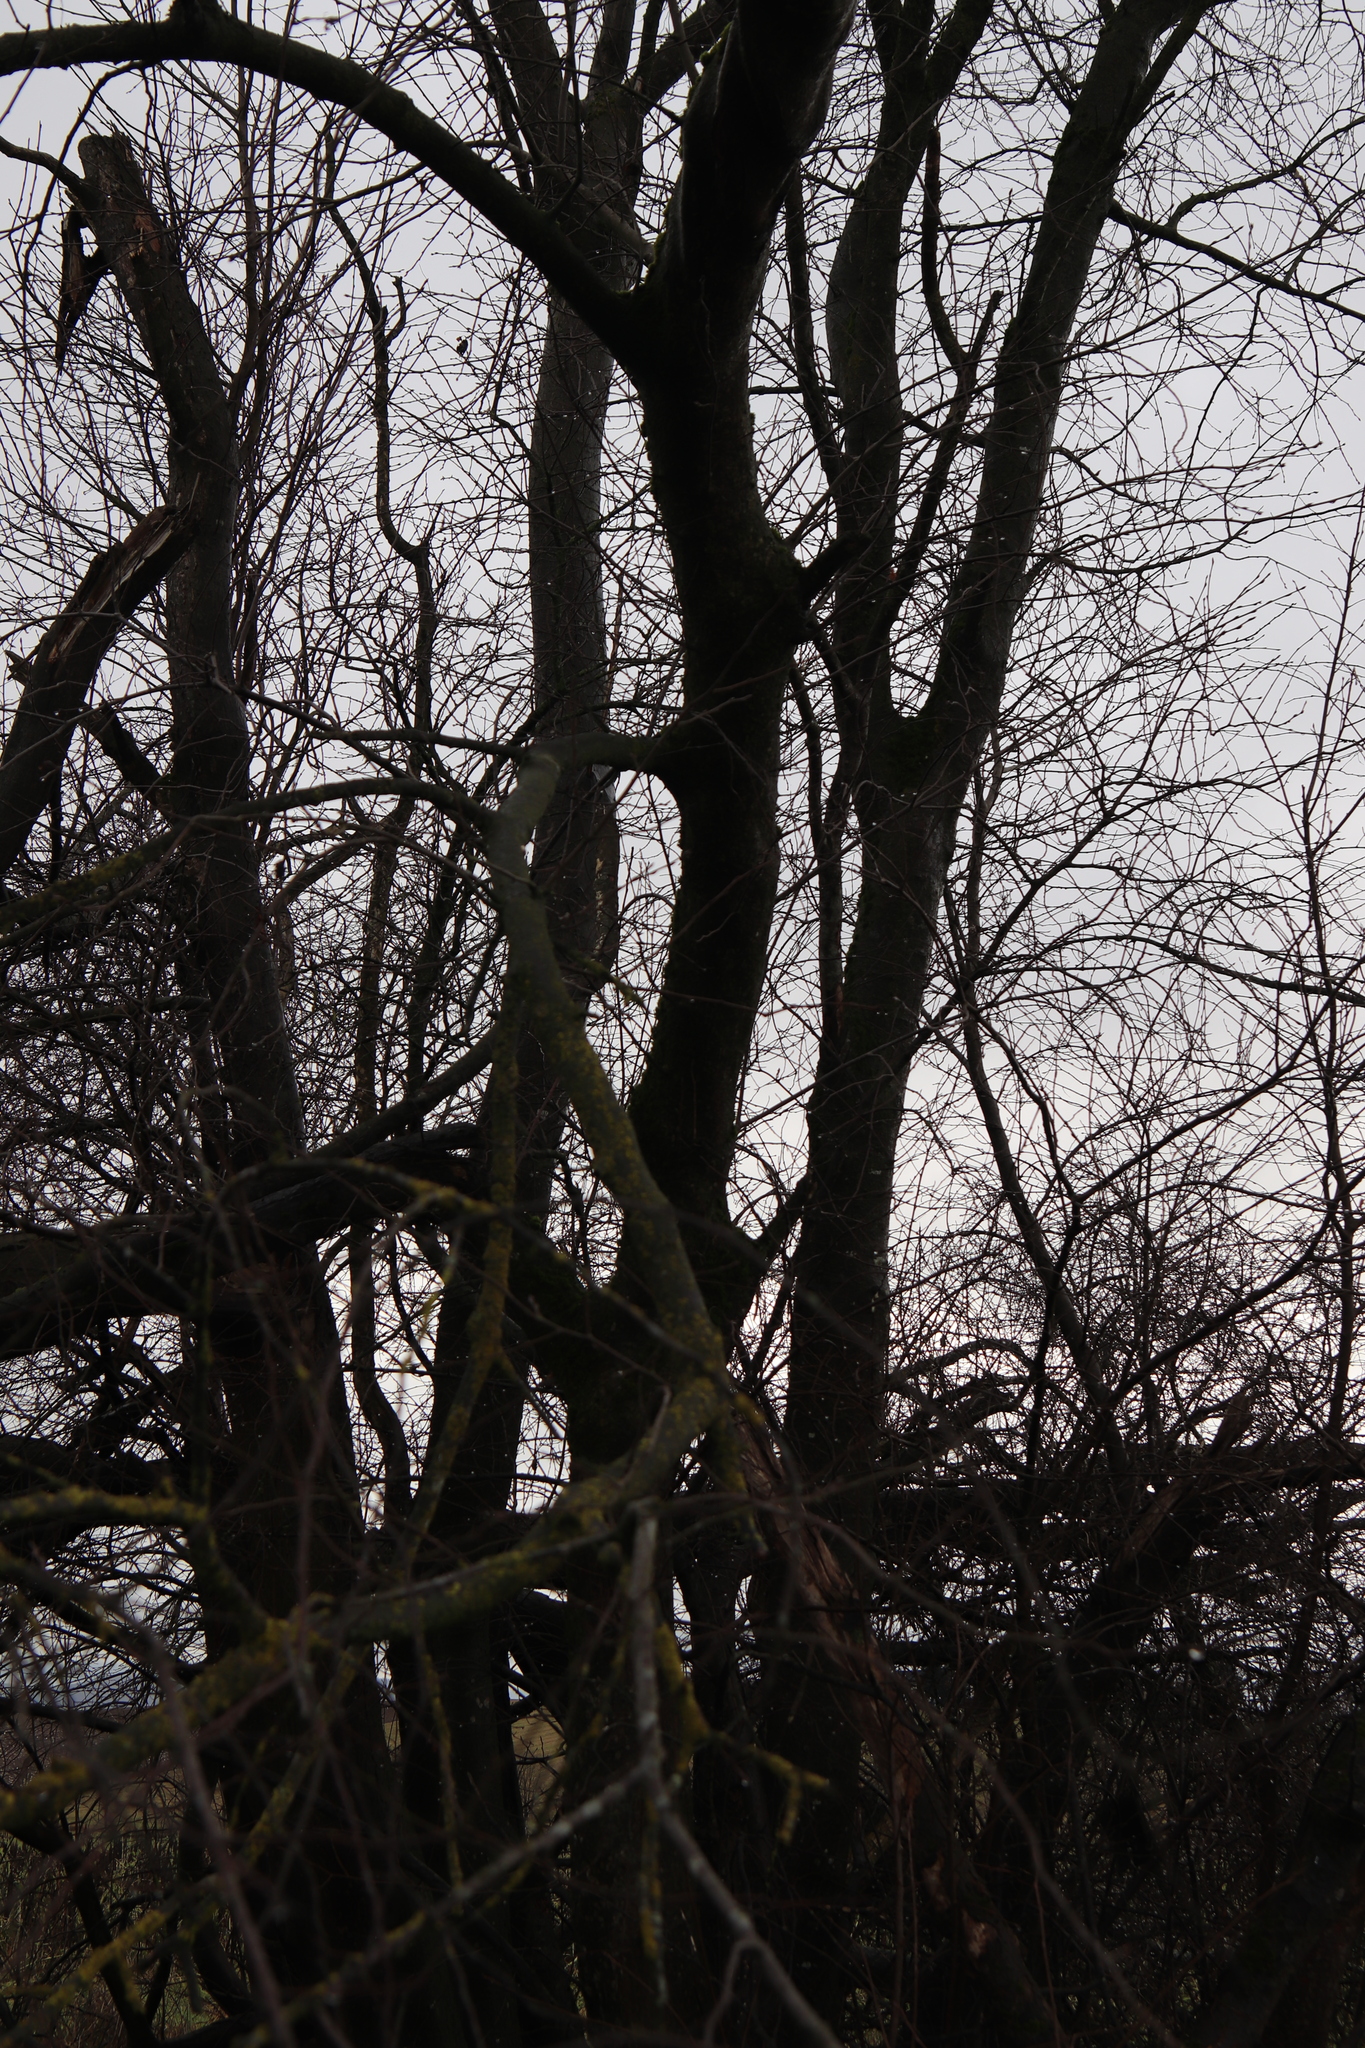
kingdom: Plantae
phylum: Tracheophyta
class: Magnoliopsida
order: Rosales
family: Rosaceae
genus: Prunus
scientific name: Prunus padus
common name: Bird cherry
